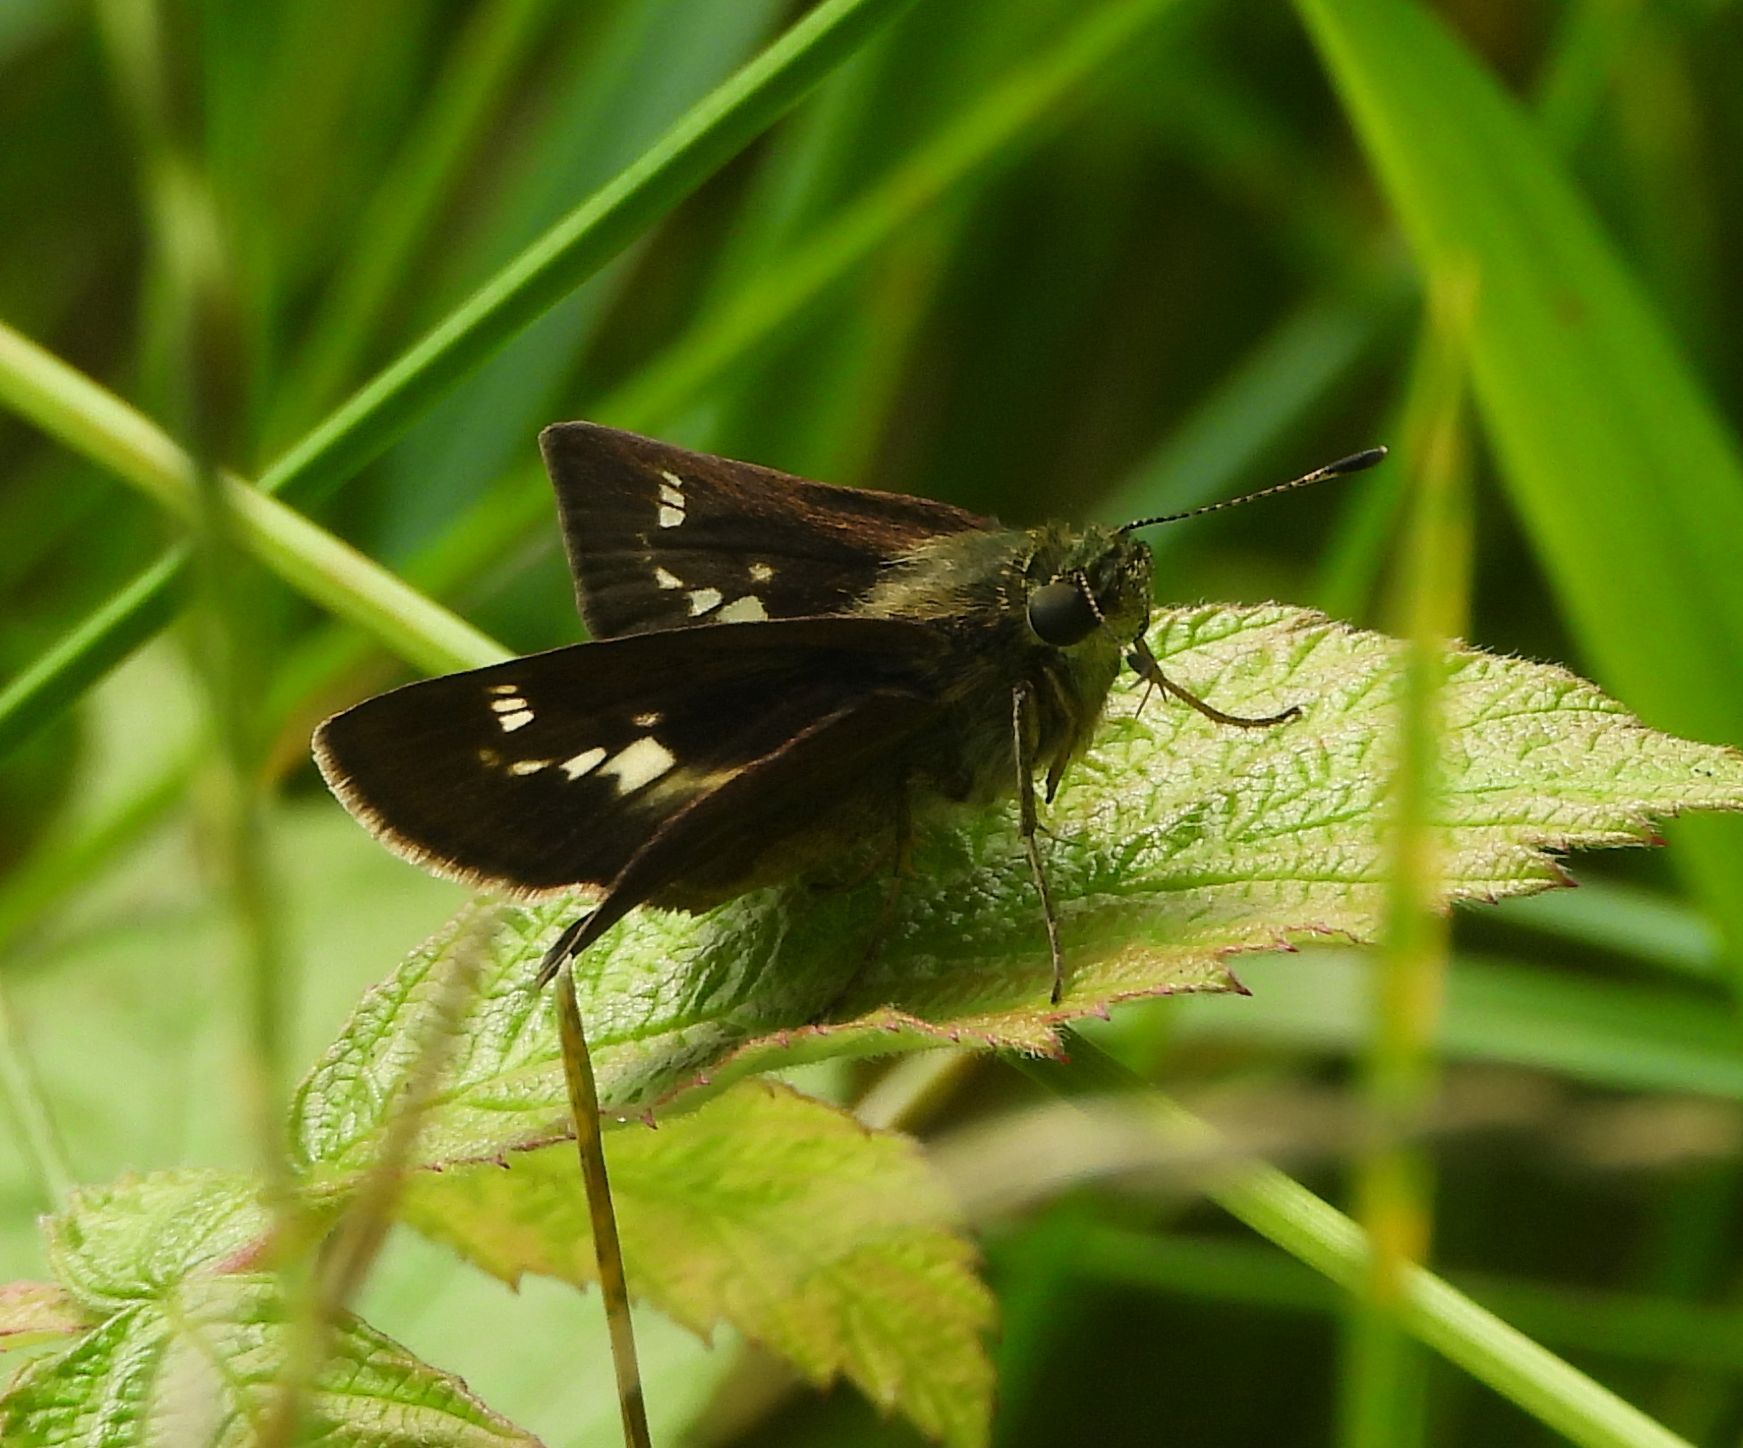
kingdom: Animalia
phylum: Arthropoda
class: Insecta
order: Lepidoptera
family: Hesperiidae
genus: Vernia
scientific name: Vernia verna
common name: Little glassywing
